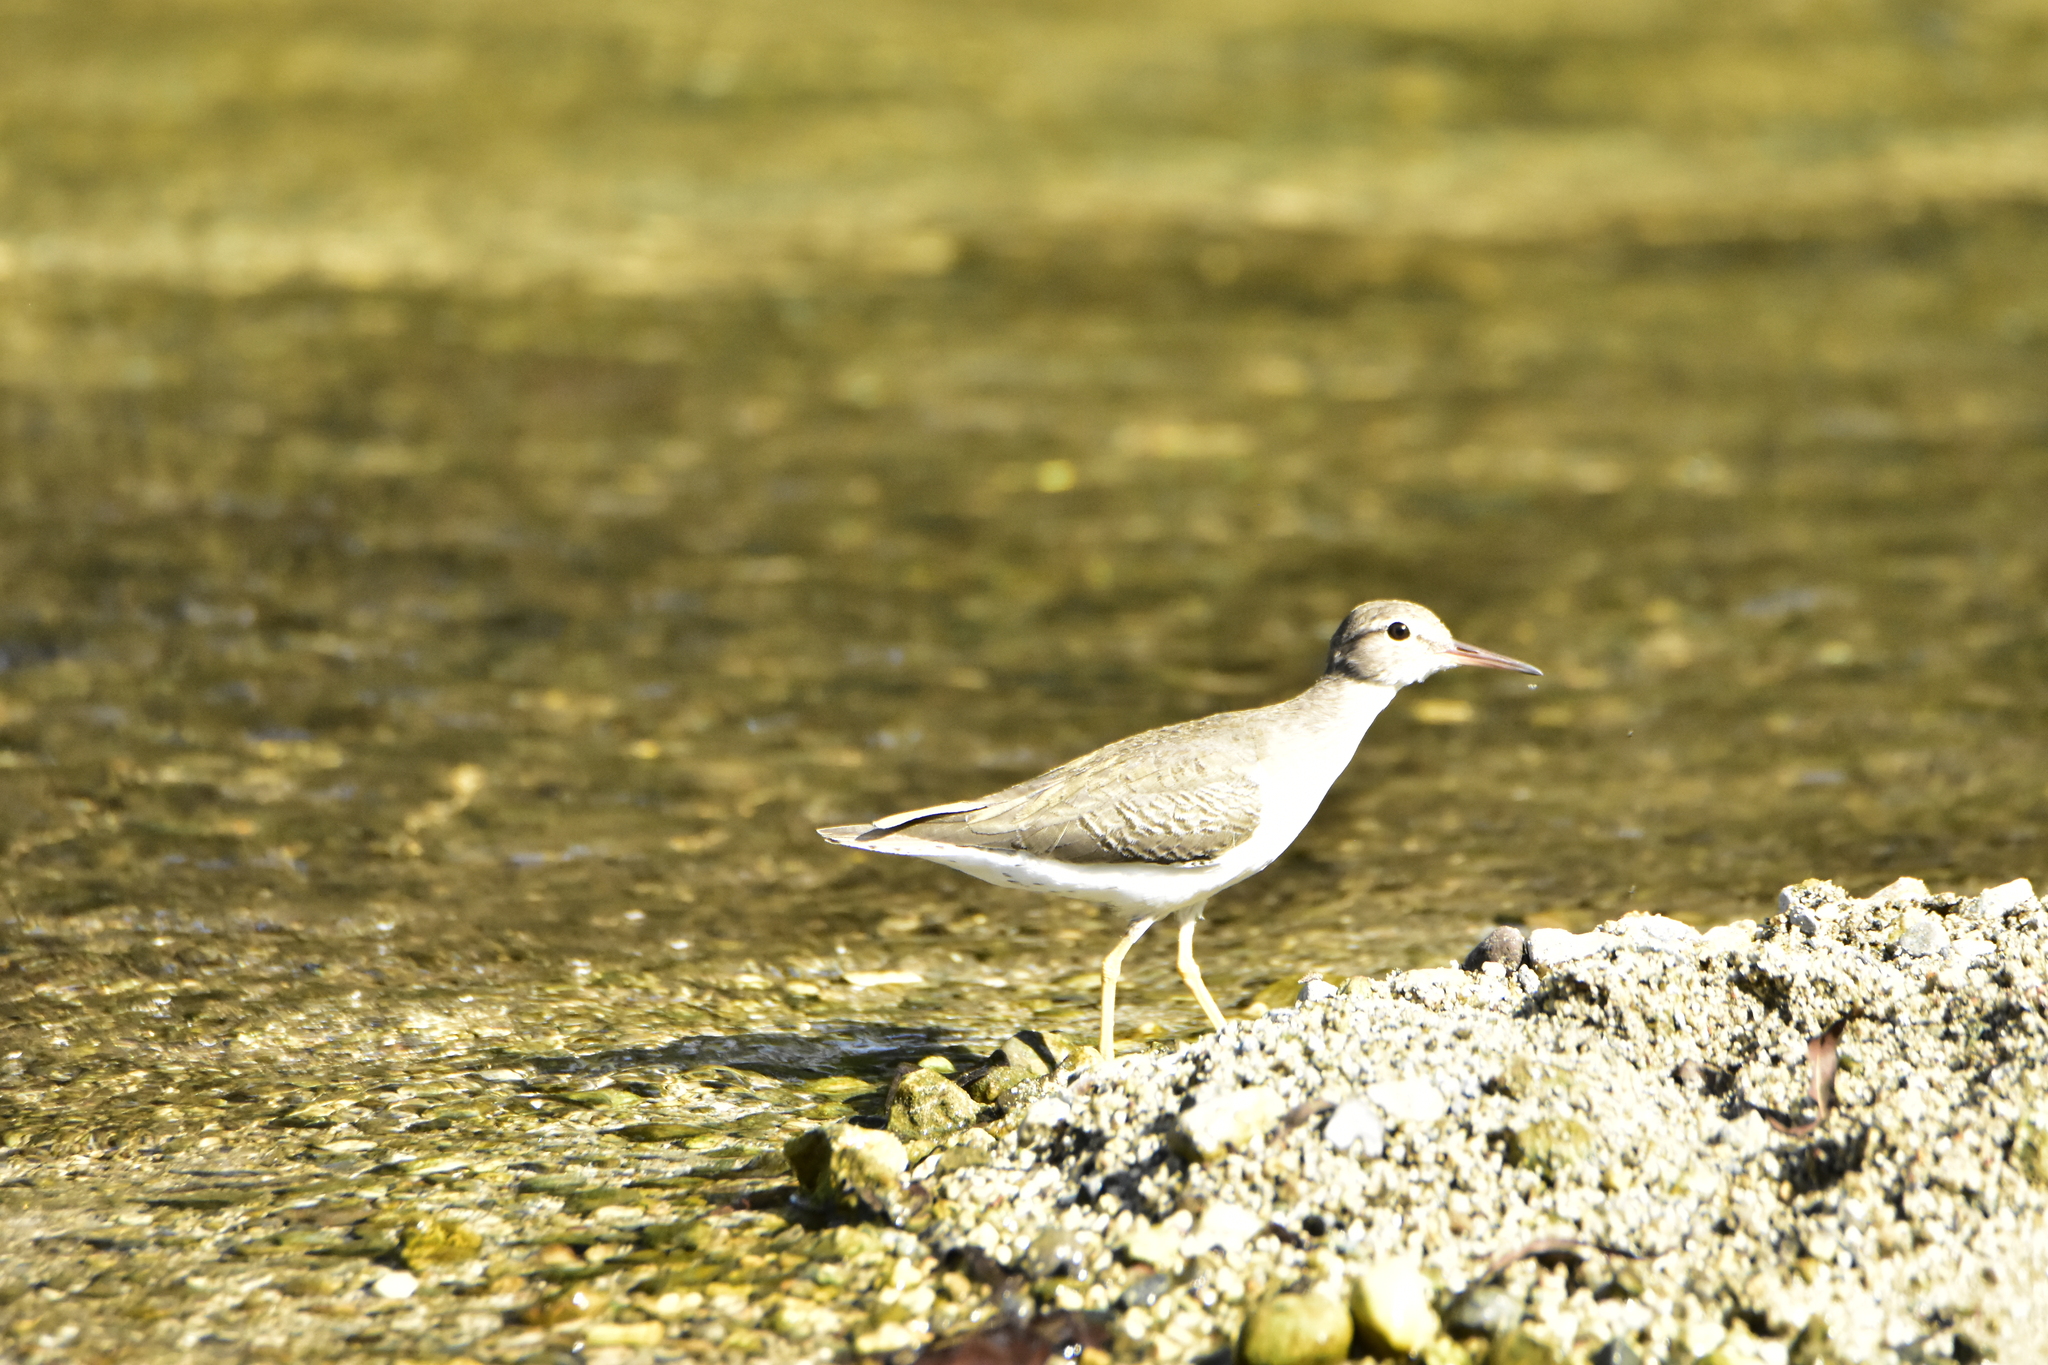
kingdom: Animalia
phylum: Chordata
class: Aves
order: Charadriiformes
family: Scolopacidae
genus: Actitis
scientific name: Actitis macularius
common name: Spotted sandpiper
